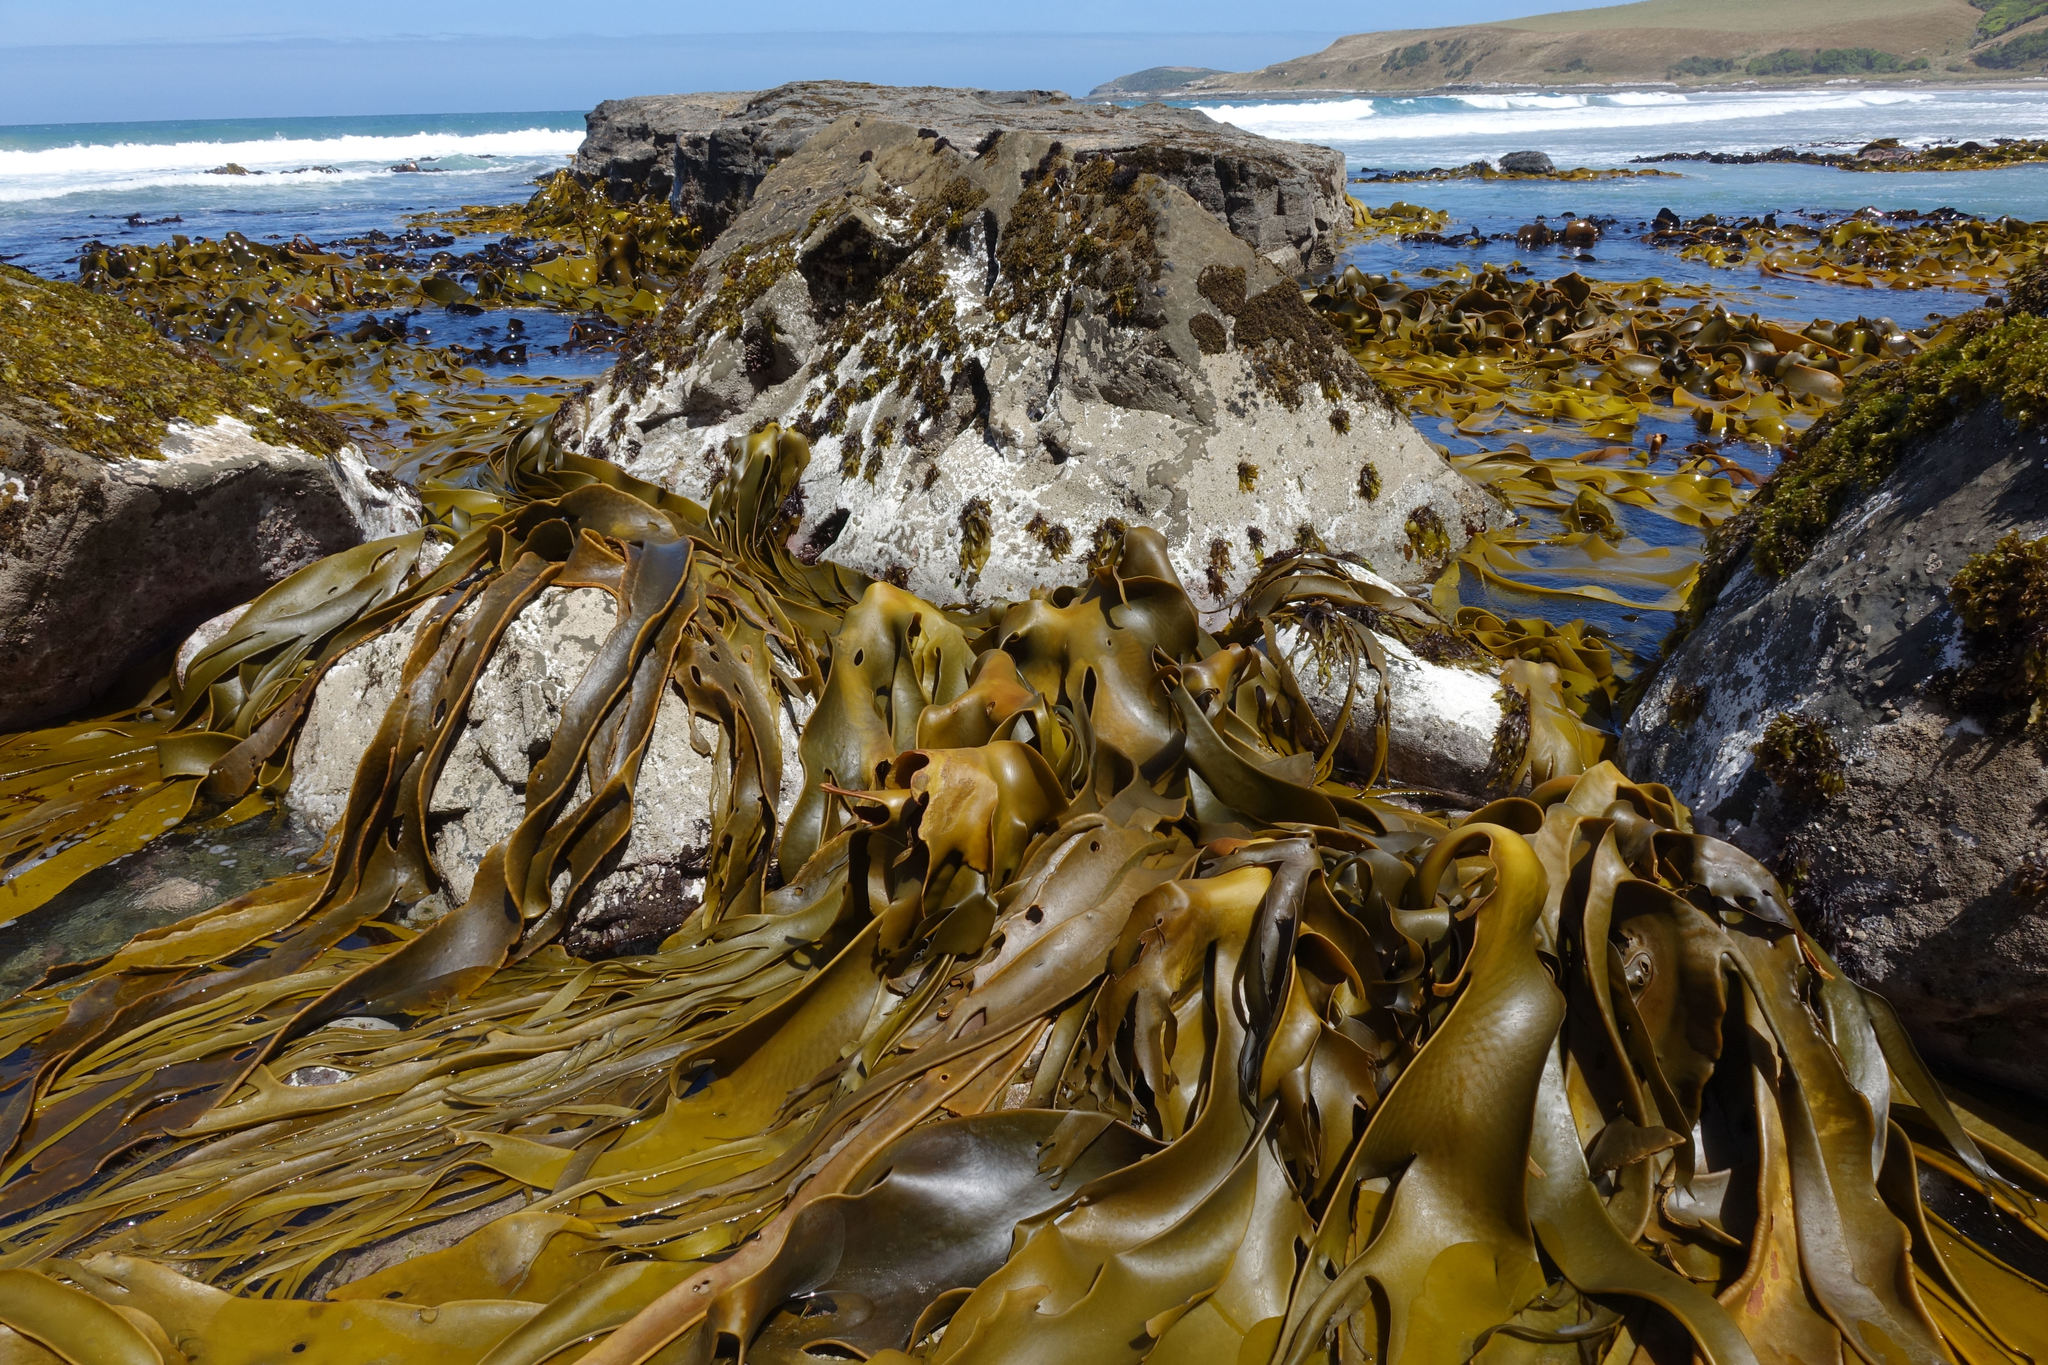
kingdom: Chromista
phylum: Ochrophyta
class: Phaeophyceae
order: Fucales
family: Durvillaeaceae
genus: Durvillaea
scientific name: Durvillaea poha
